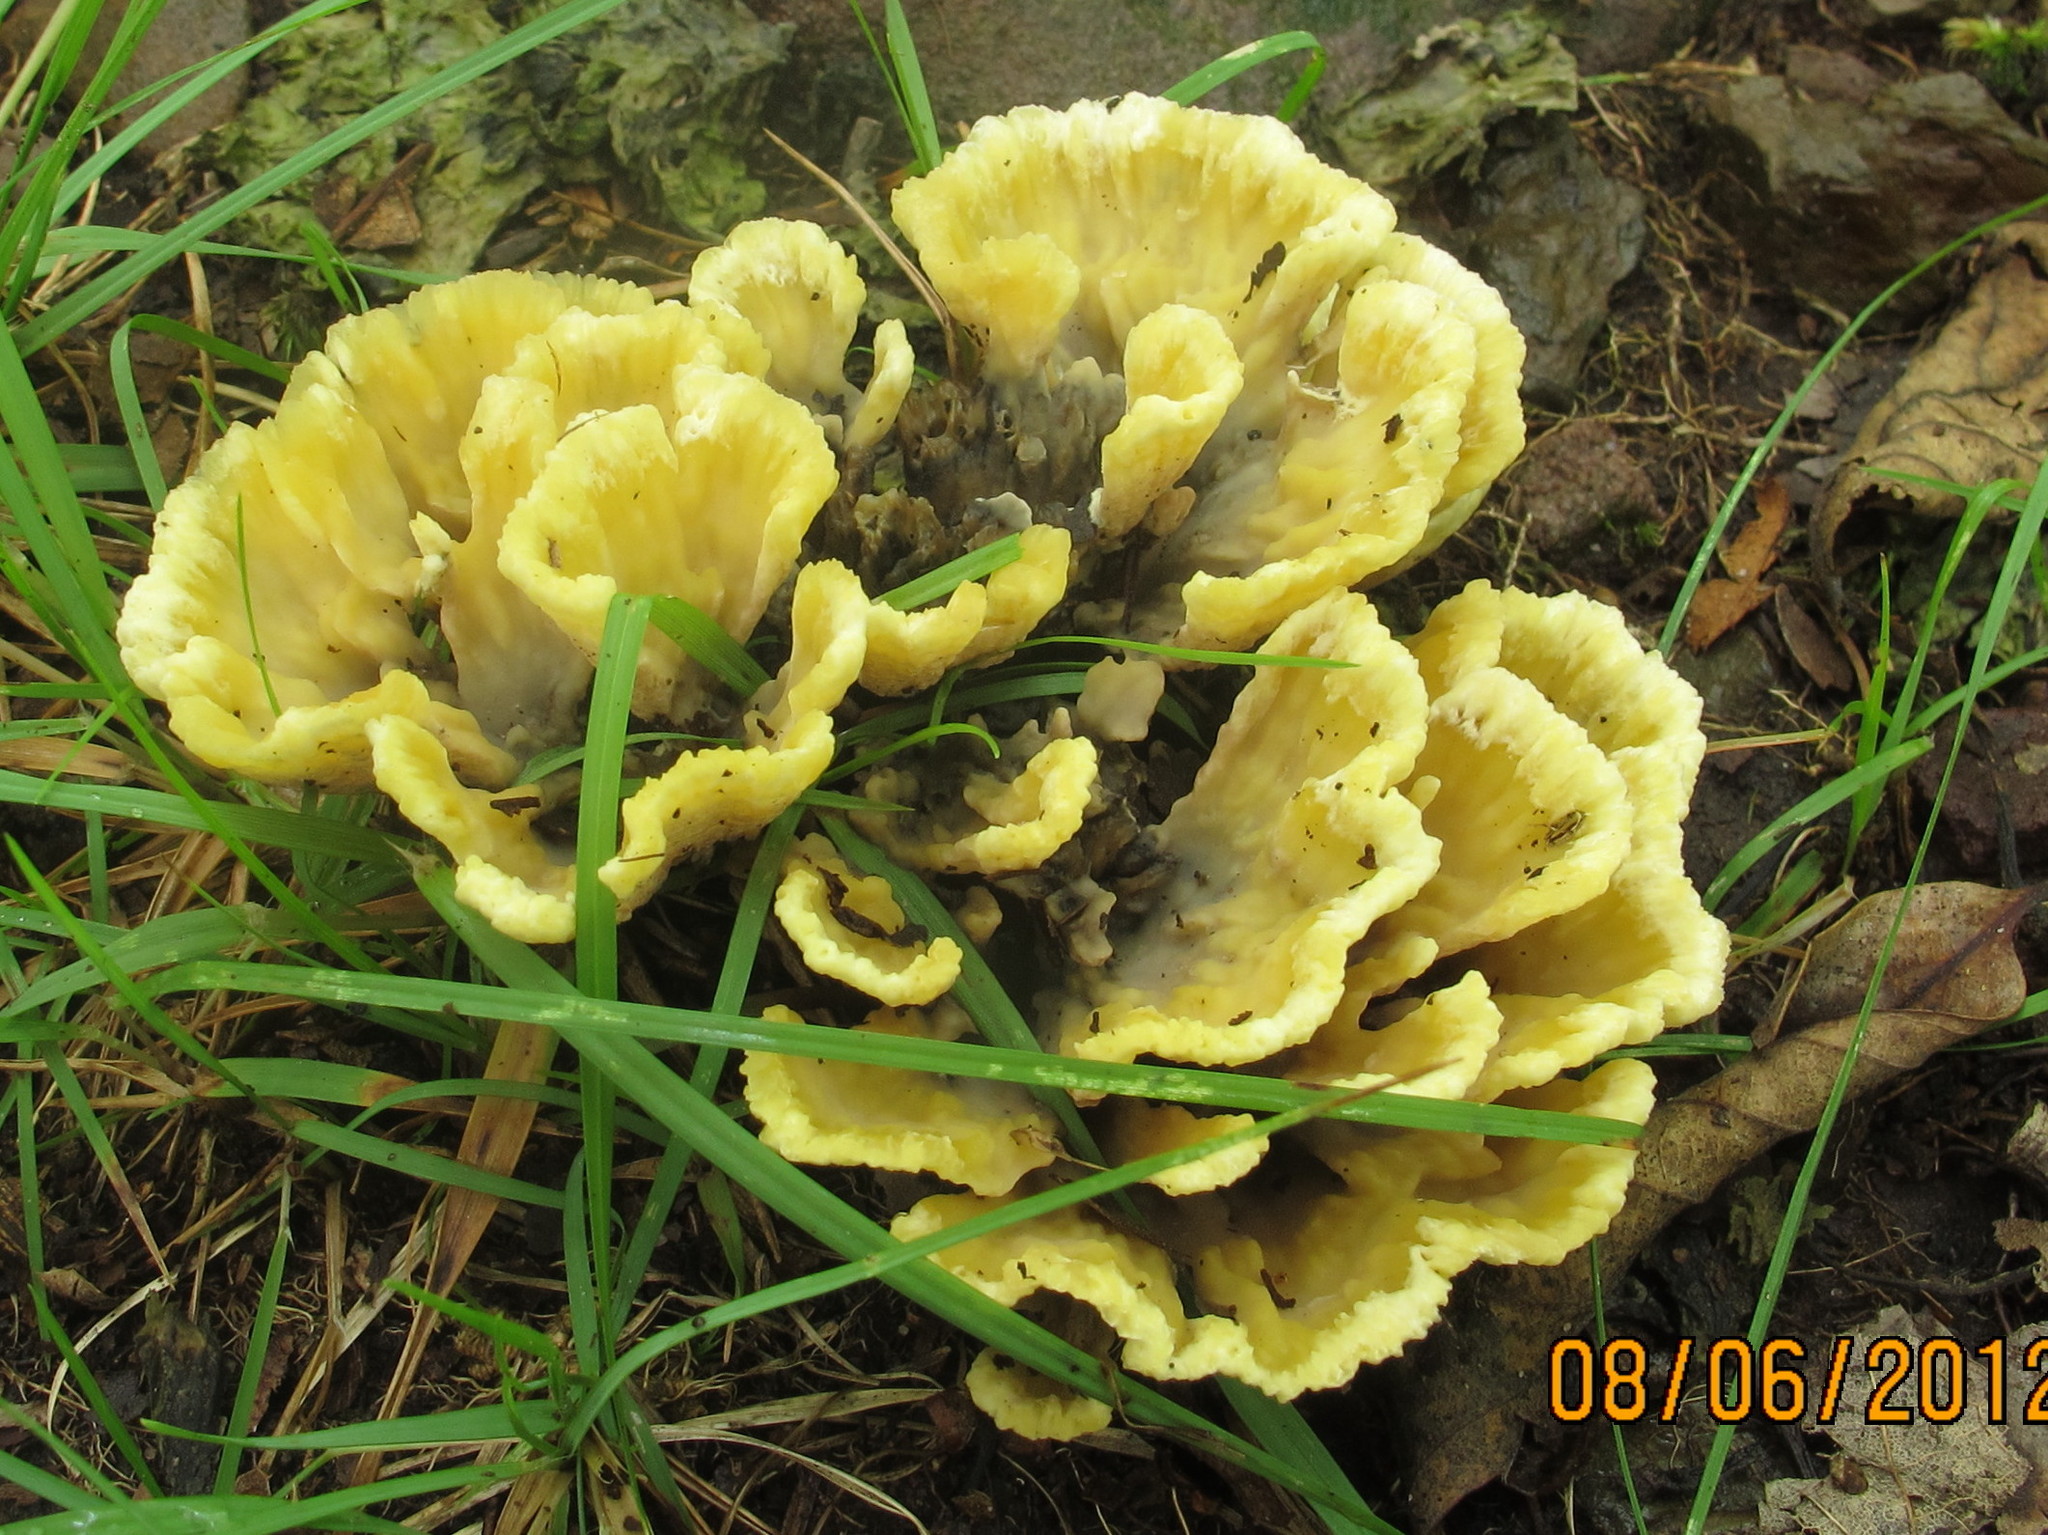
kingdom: Fungi
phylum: Basidiomycota
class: Agaricomycetes
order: Thelephorales
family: Thelephoraceae
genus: Thelephora
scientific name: Thelephora vialis
